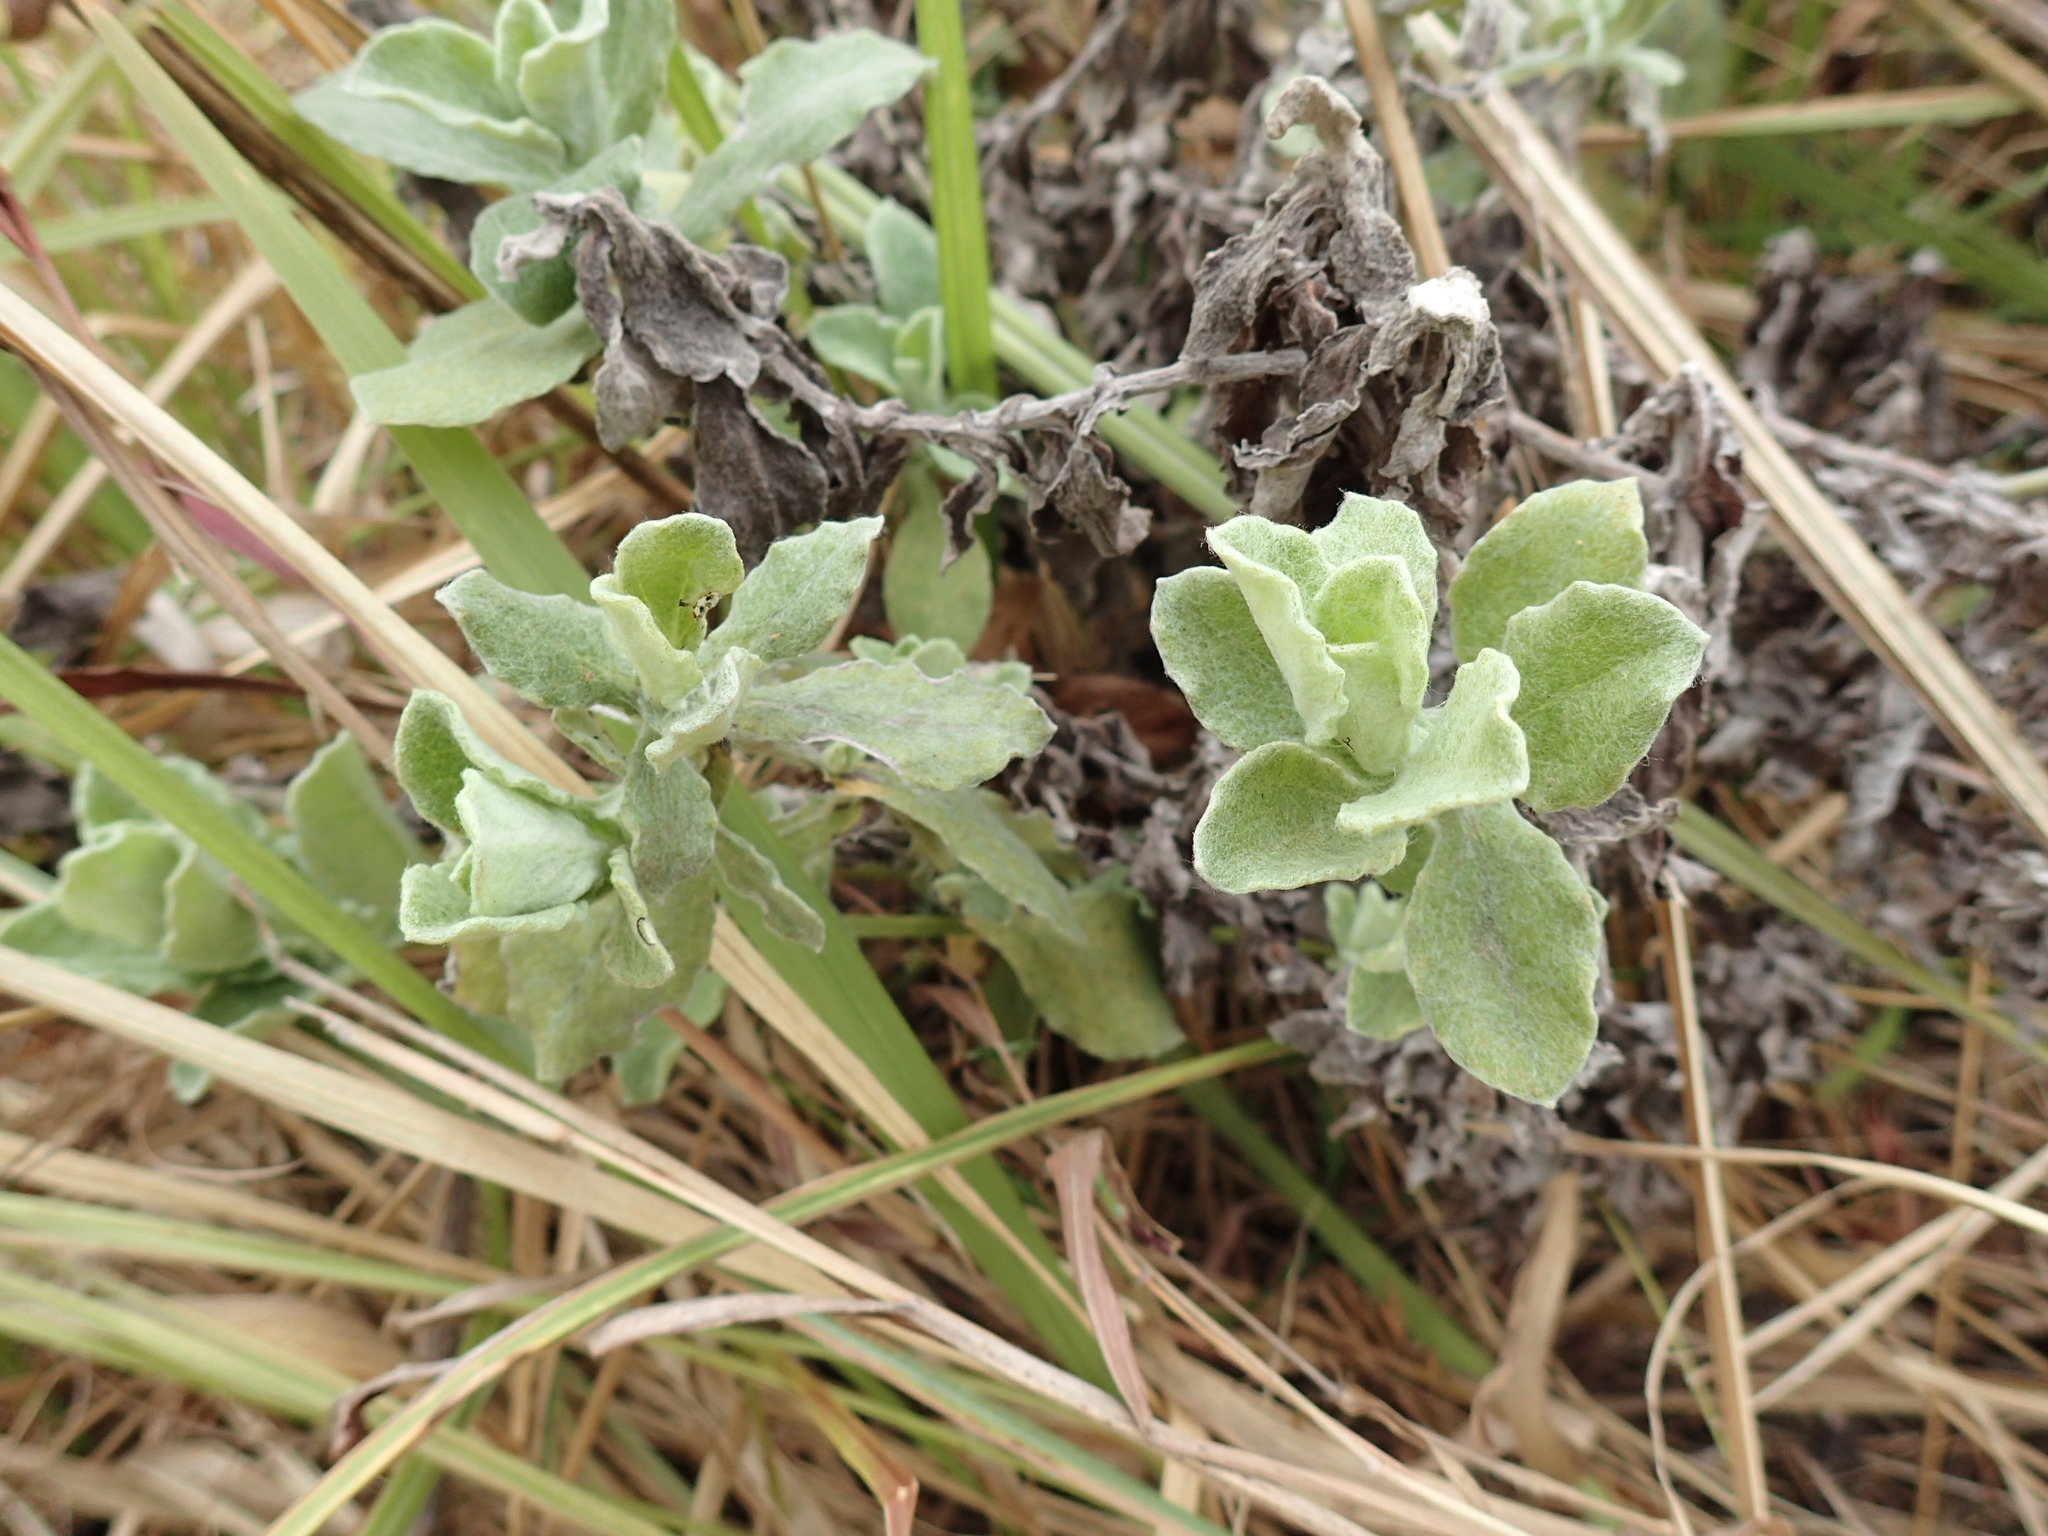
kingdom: Plantae
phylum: Tracheophyta
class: Magnoliopsida
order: Asterales
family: Asteraceae
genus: Helichrysum
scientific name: Helichrysum panduratum
